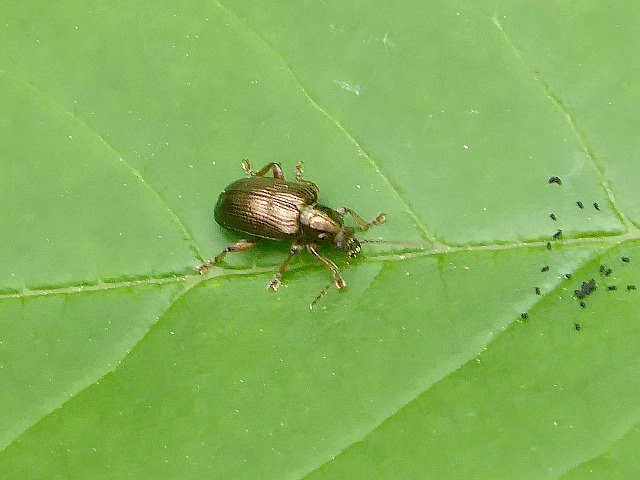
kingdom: Animalia
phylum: Arthropoda
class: Insecta
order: Coleoptera
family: Chrysomelidae
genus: Plateumaris
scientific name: Plateumaris rufa
